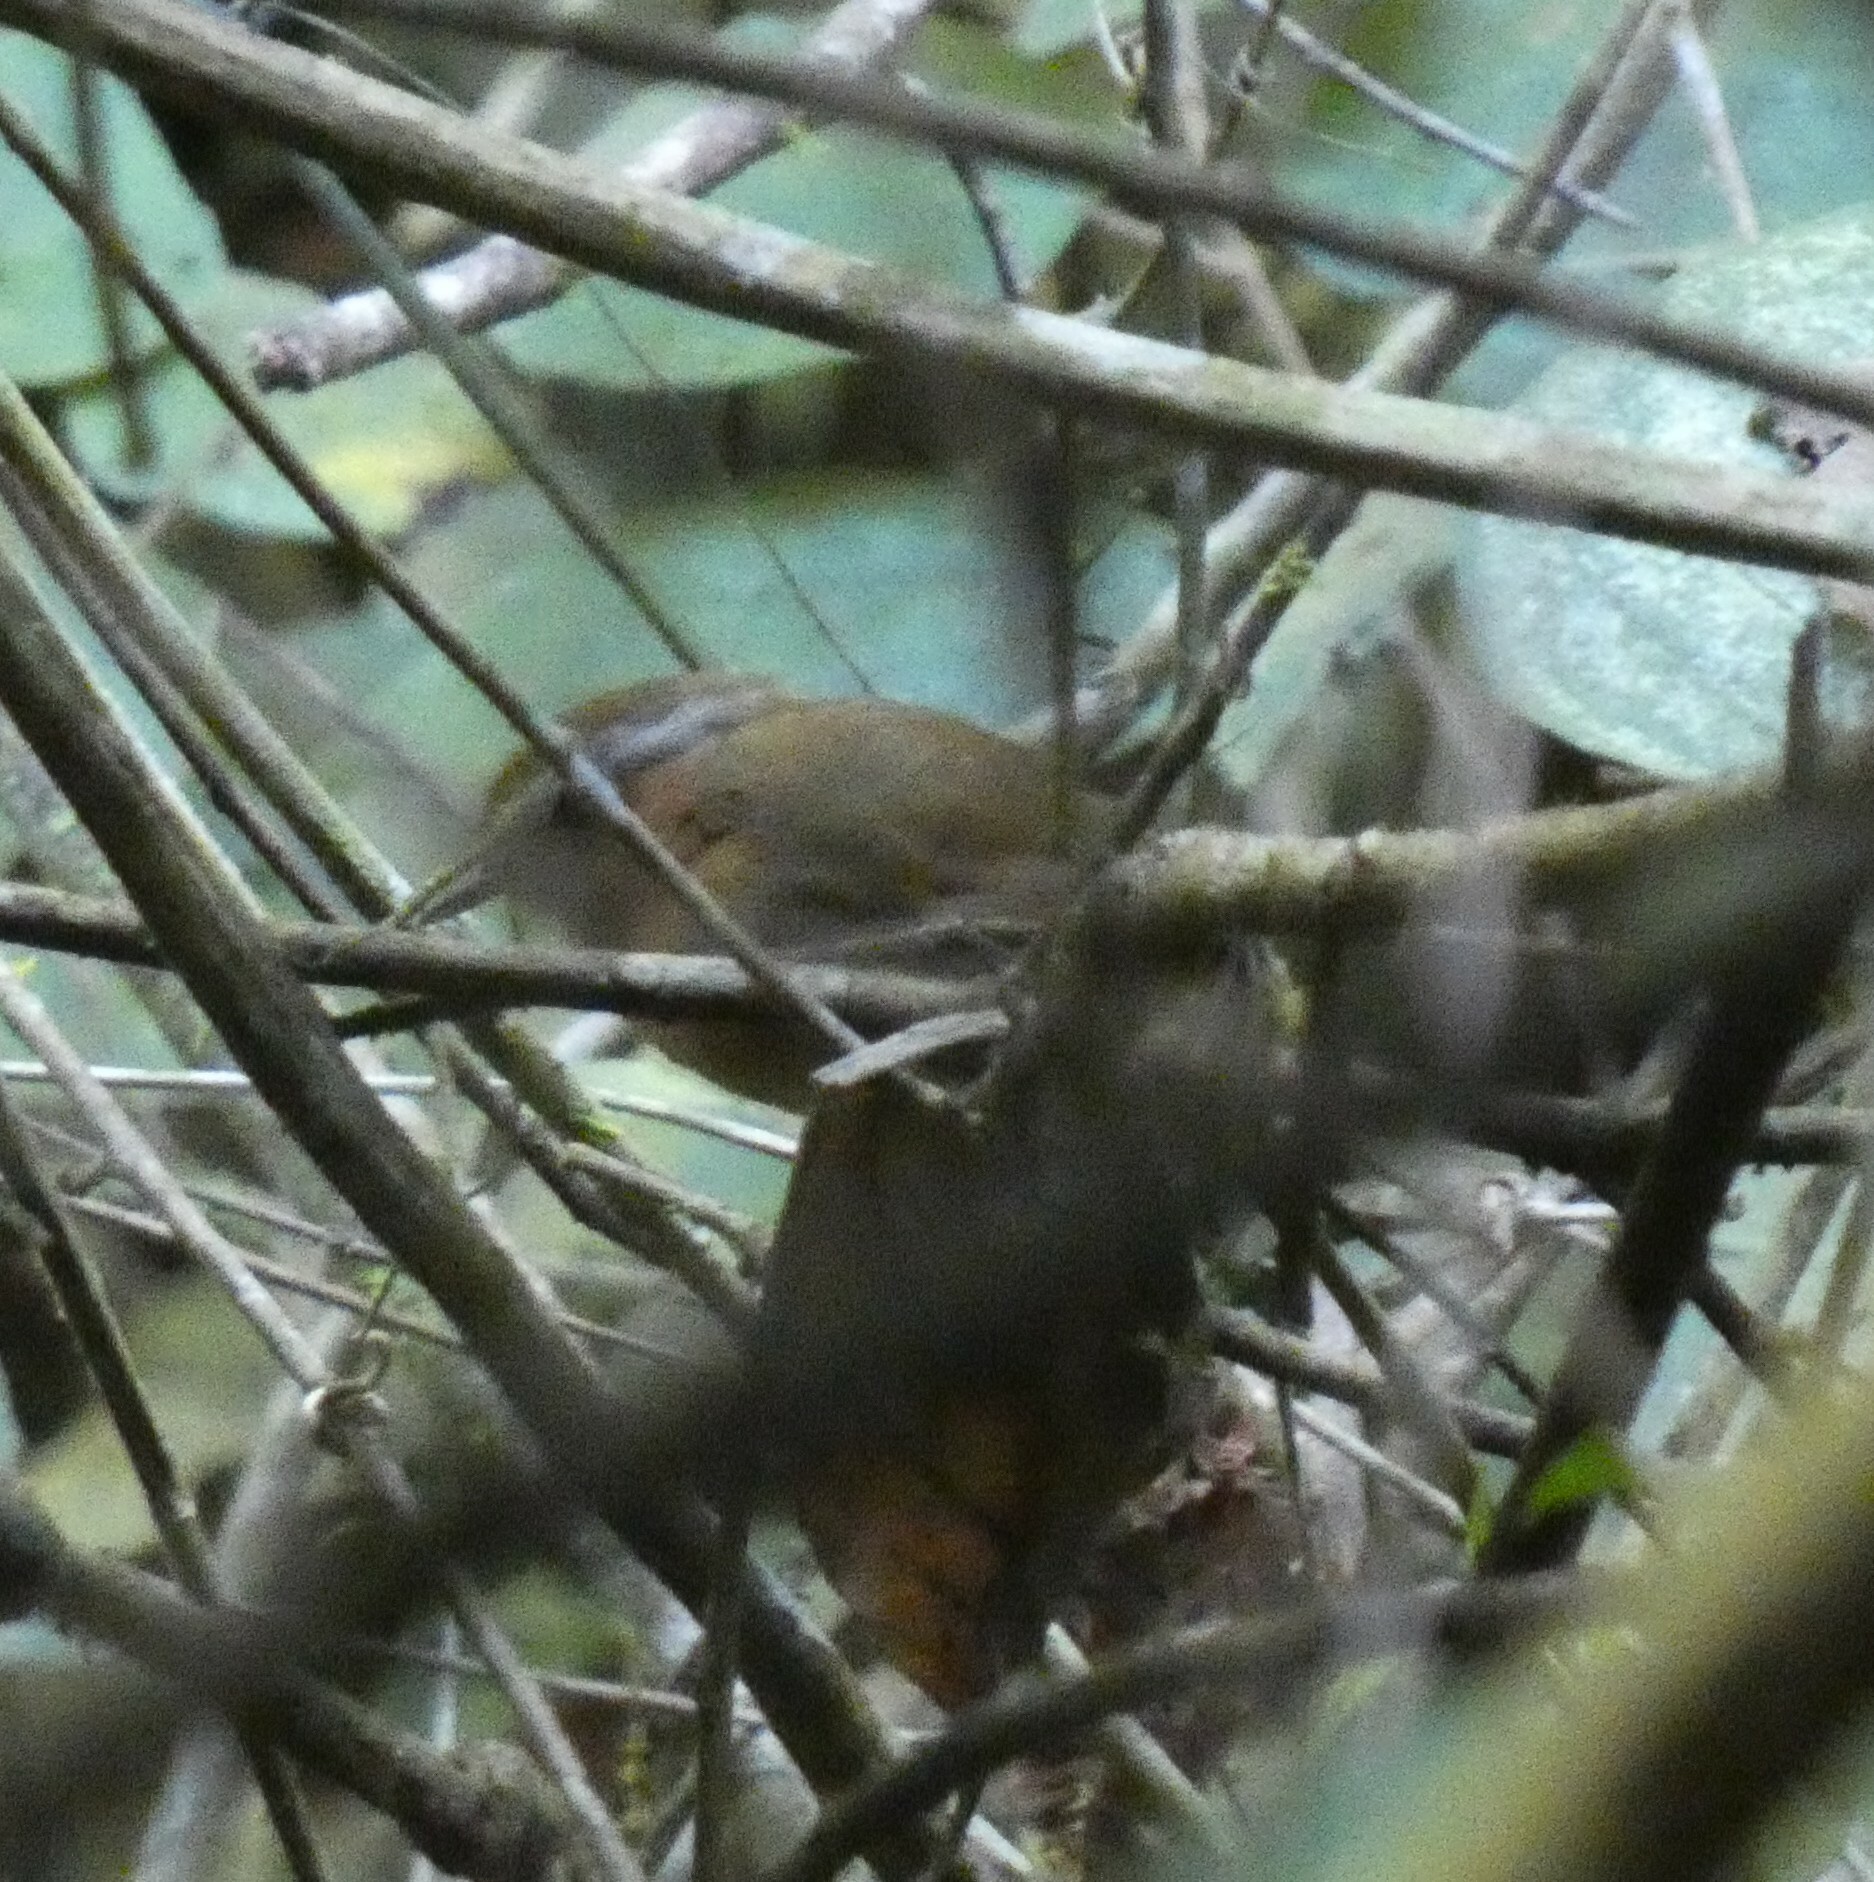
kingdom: Animalia
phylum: Chordata
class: Aves
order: Passeriformes
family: Conopophagidae
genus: Conopophaga
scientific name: Conopophaga lineata
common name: Rufous gnateater
